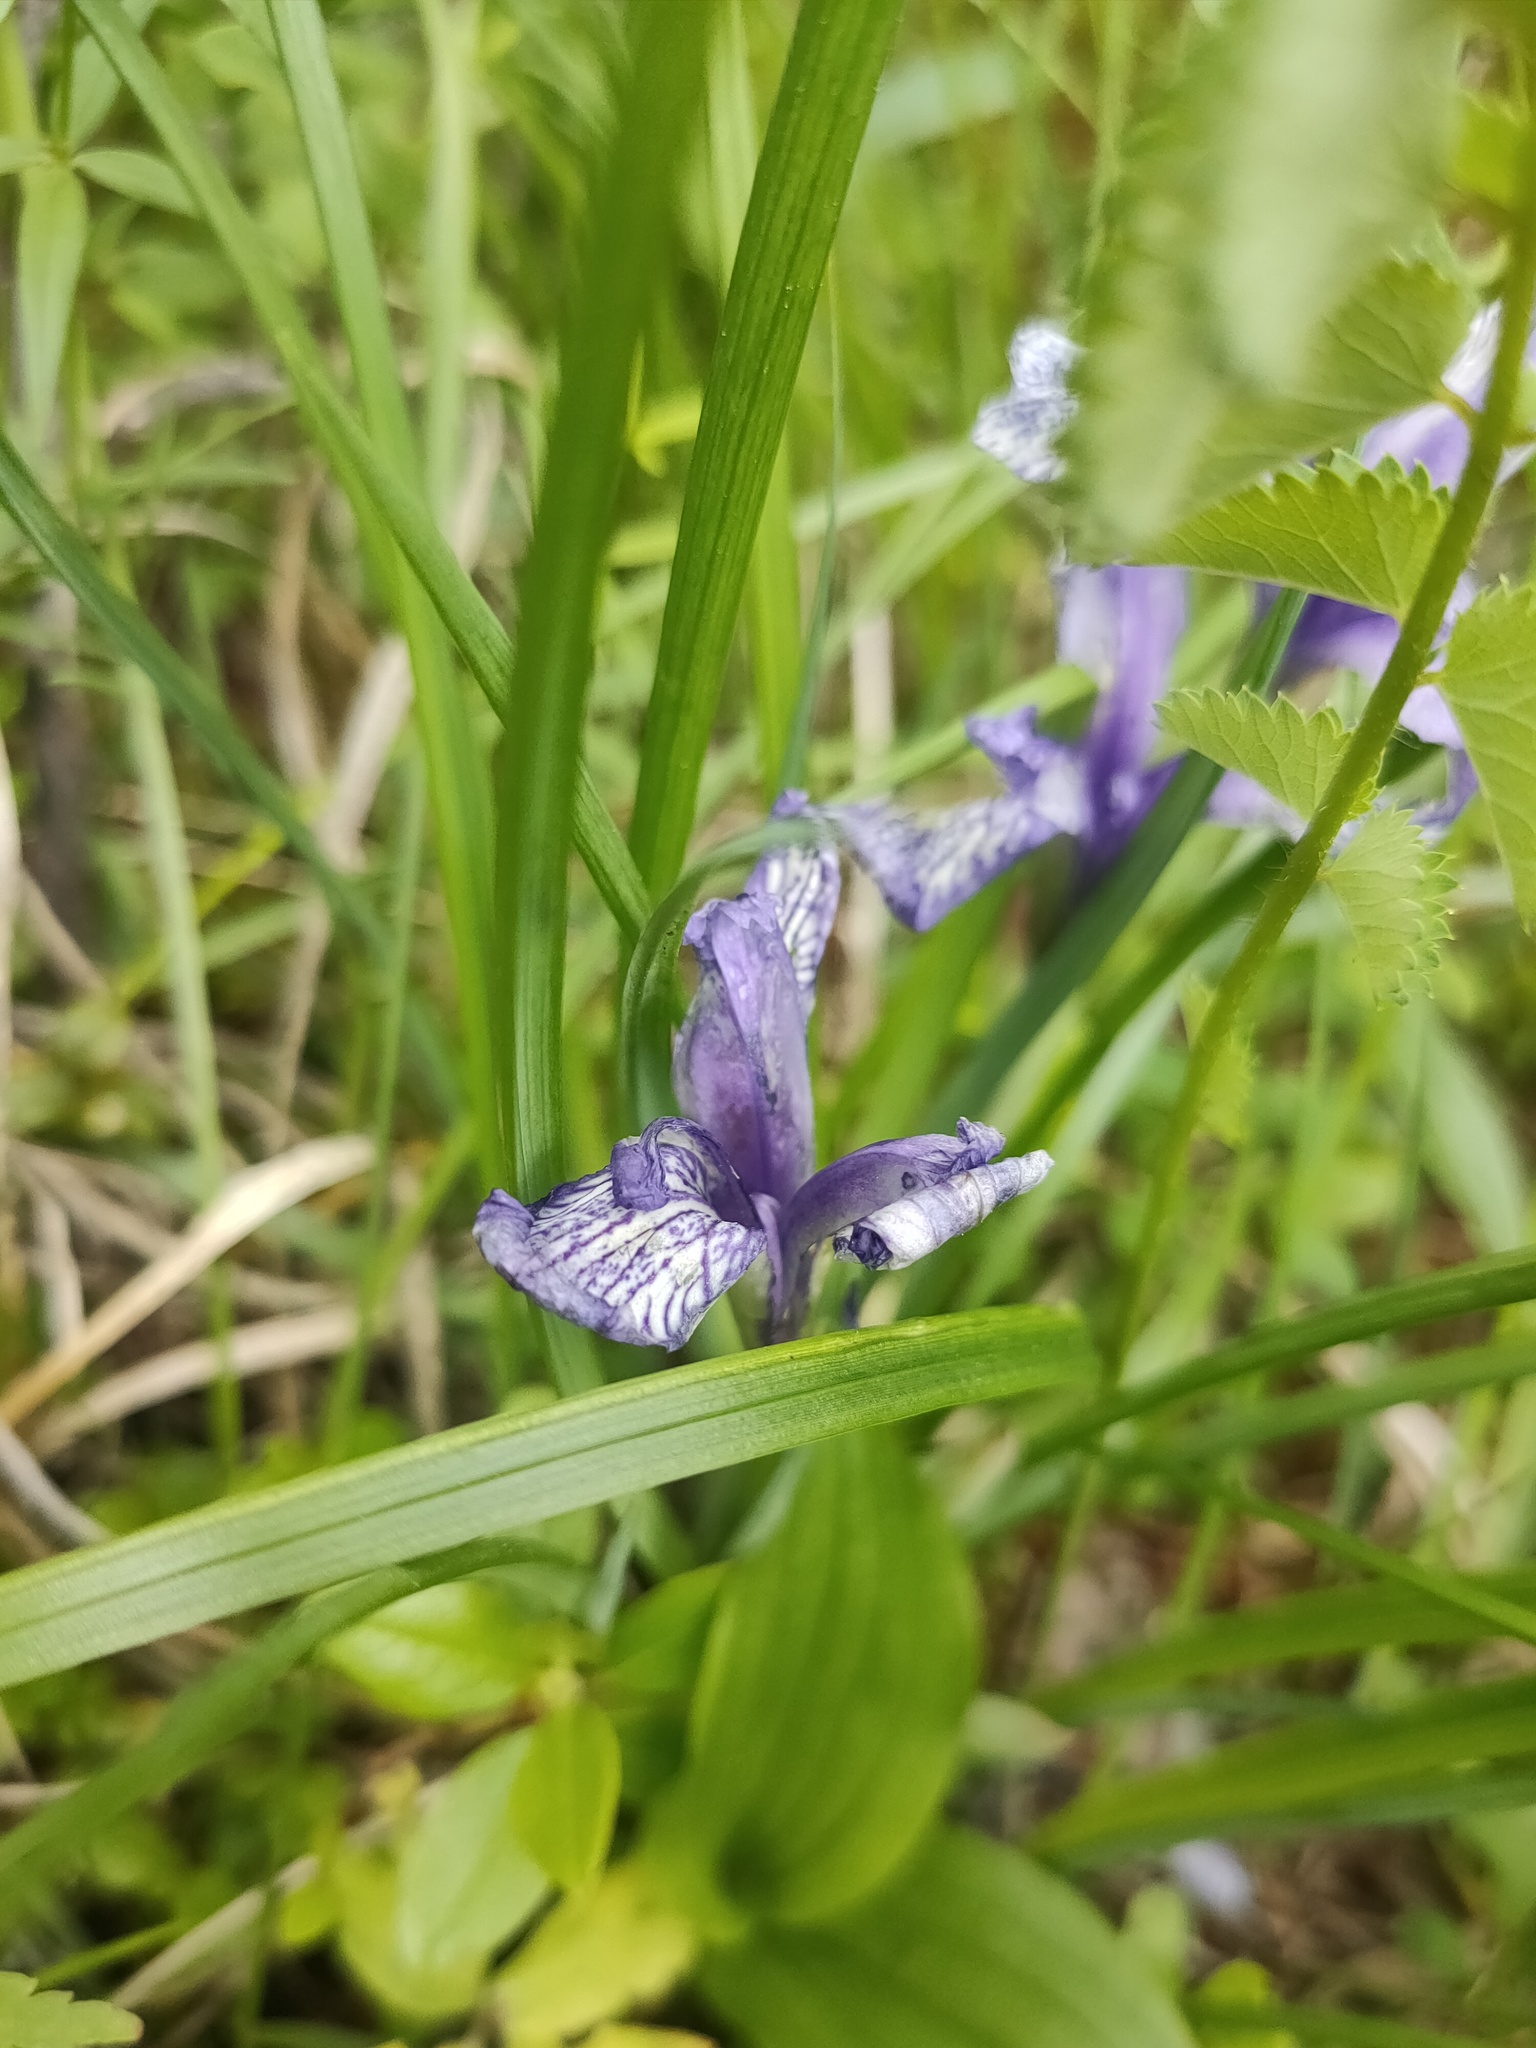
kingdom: Plantae
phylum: Tracheophyta
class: Liliopsida
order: Asparagales
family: Iridaceae
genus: Iris
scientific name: Iris ruthenica
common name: Purple-bract iris
